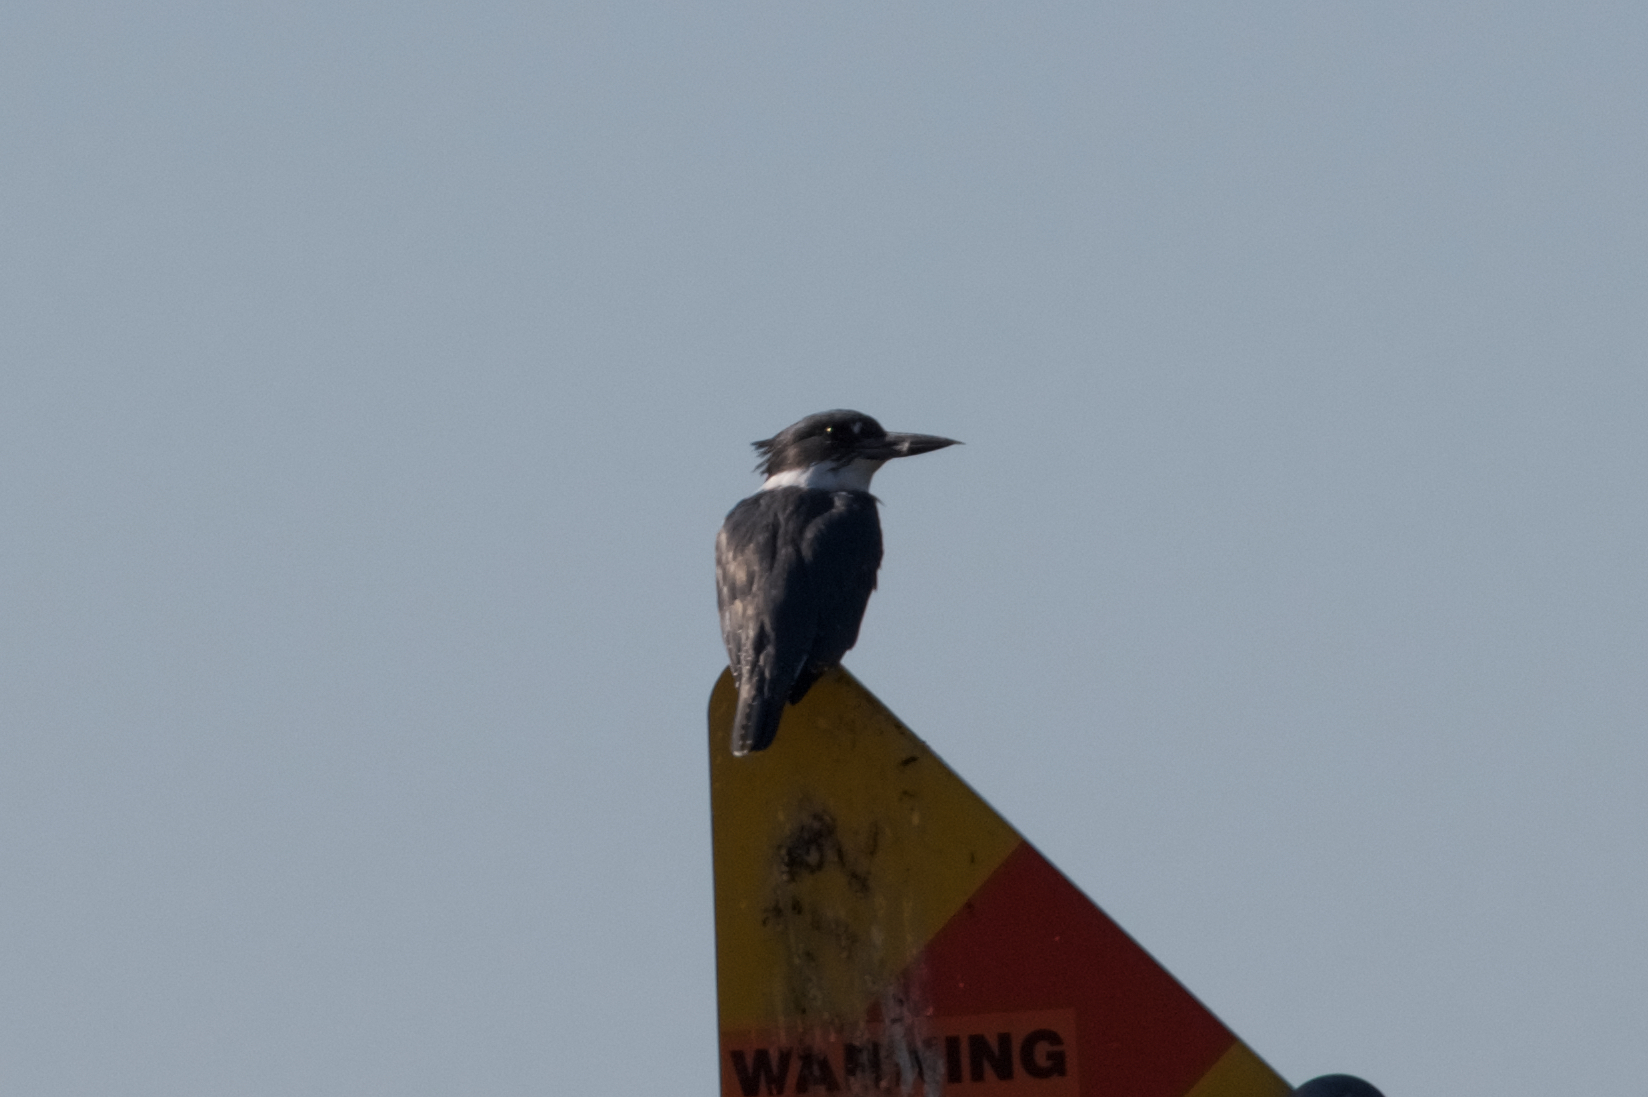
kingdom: Animalia
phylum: Chordata
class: Aves
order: Coraciiformes
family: Alcedinidae
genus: Megaceryle
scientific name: Megaceryle alcyon
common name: Belted kingfisher
